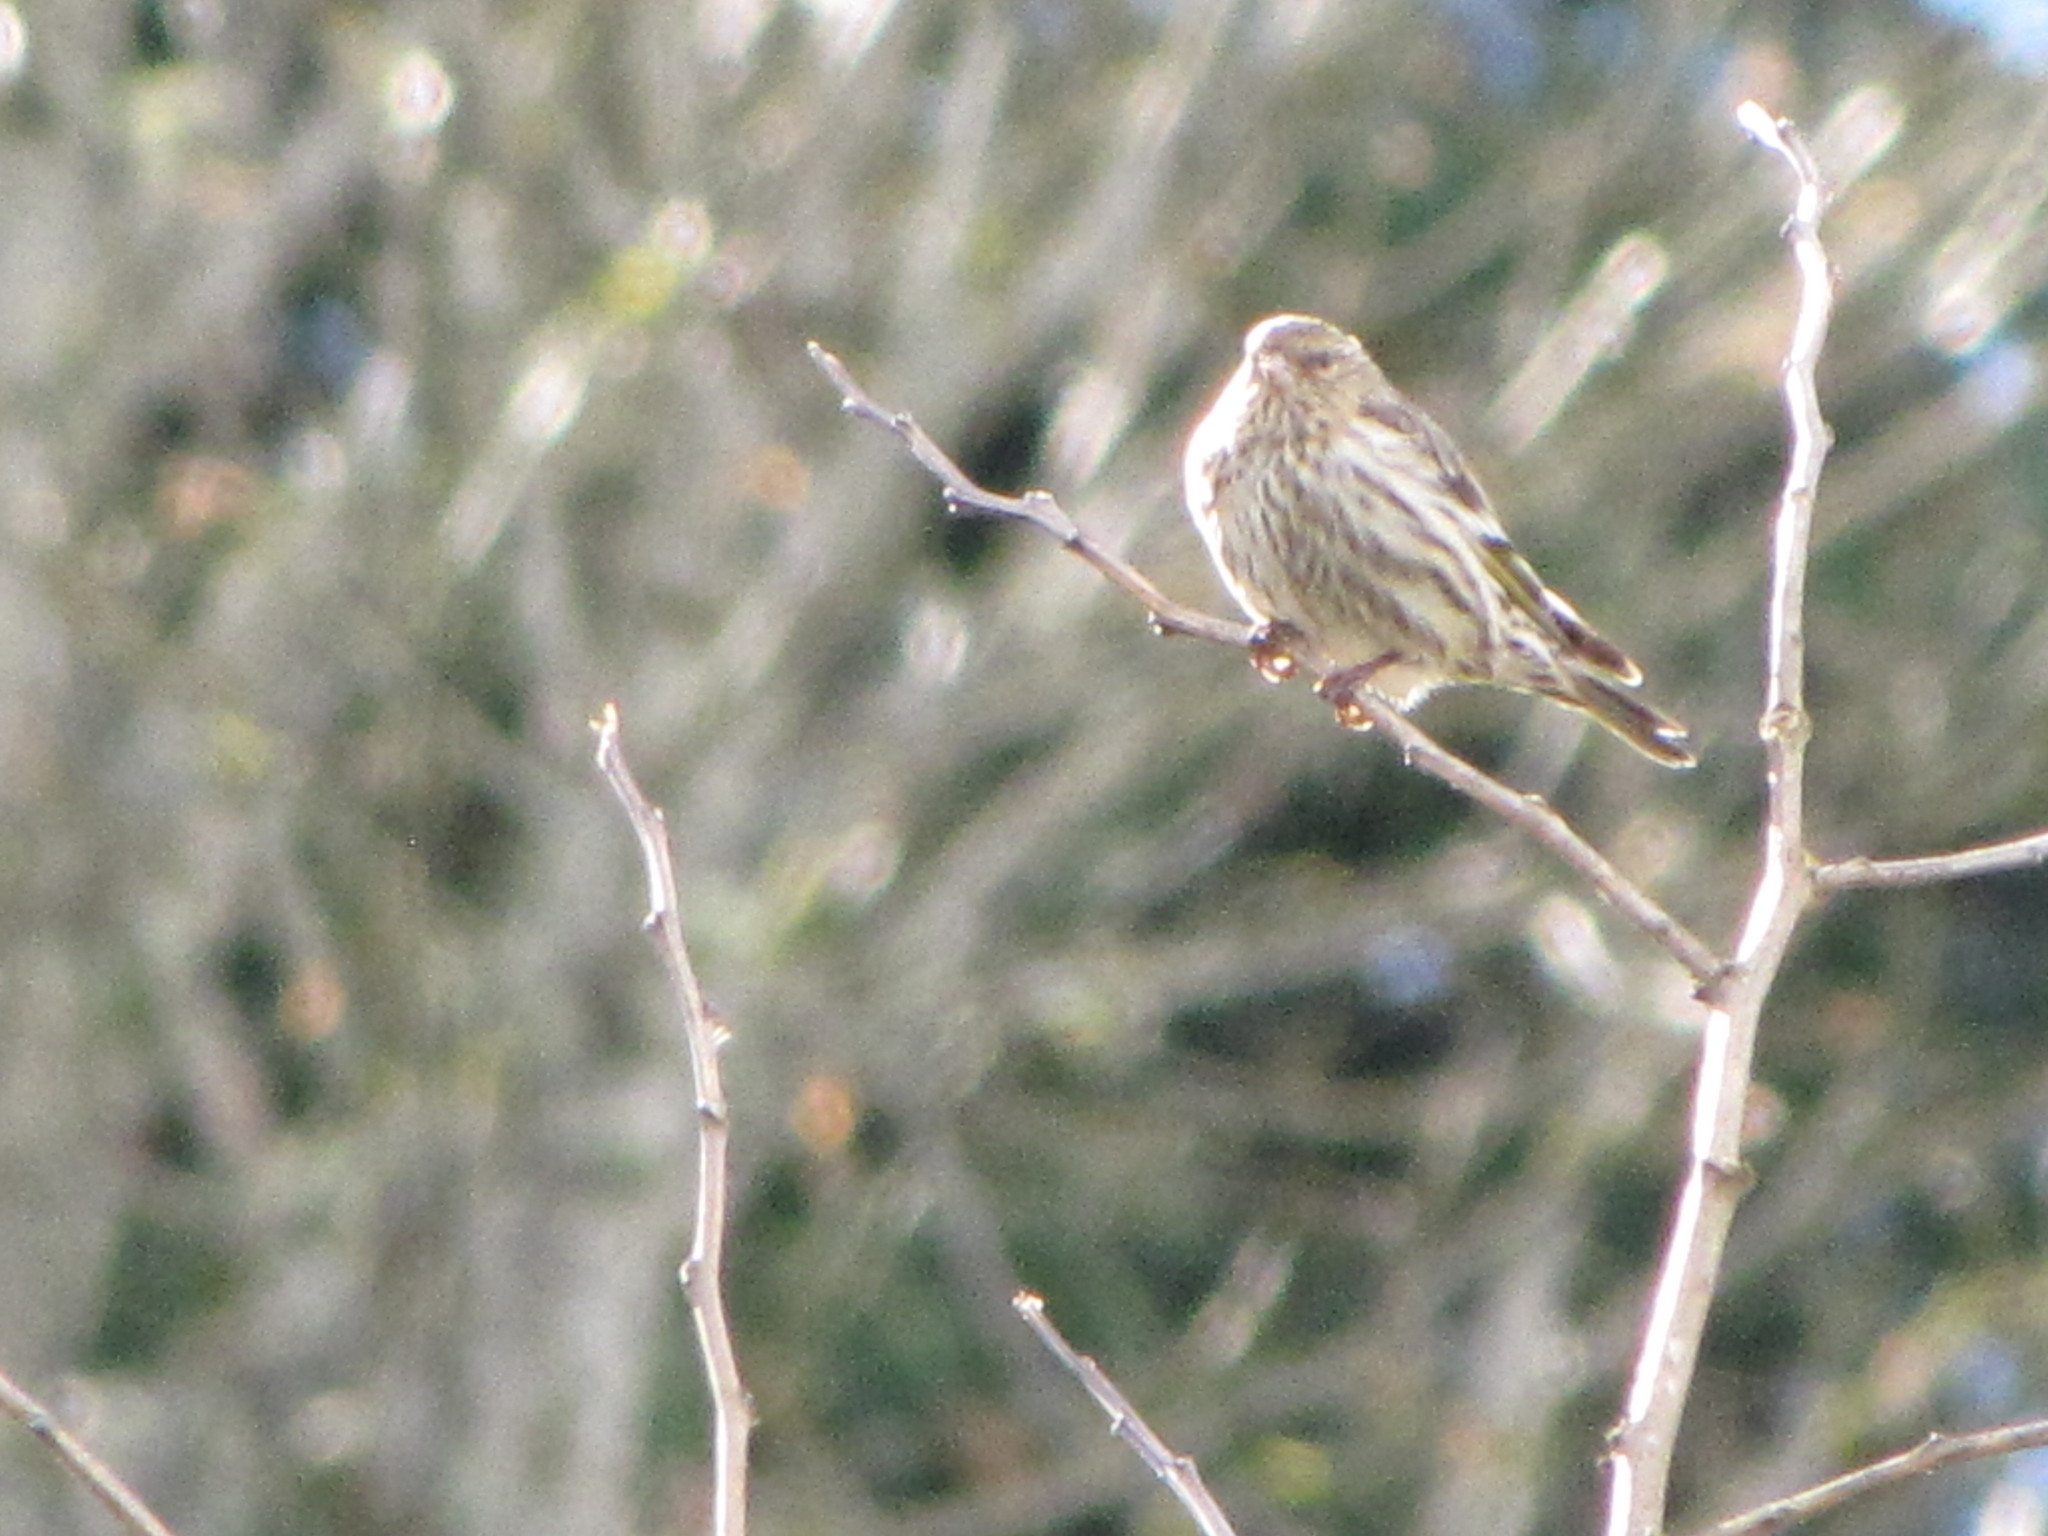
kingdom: Animalia
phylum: Chordata
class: Aves
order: Passeriformes
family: Fringillidae
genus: Spinus
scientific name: Spinus pinus
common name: Pine siskin
